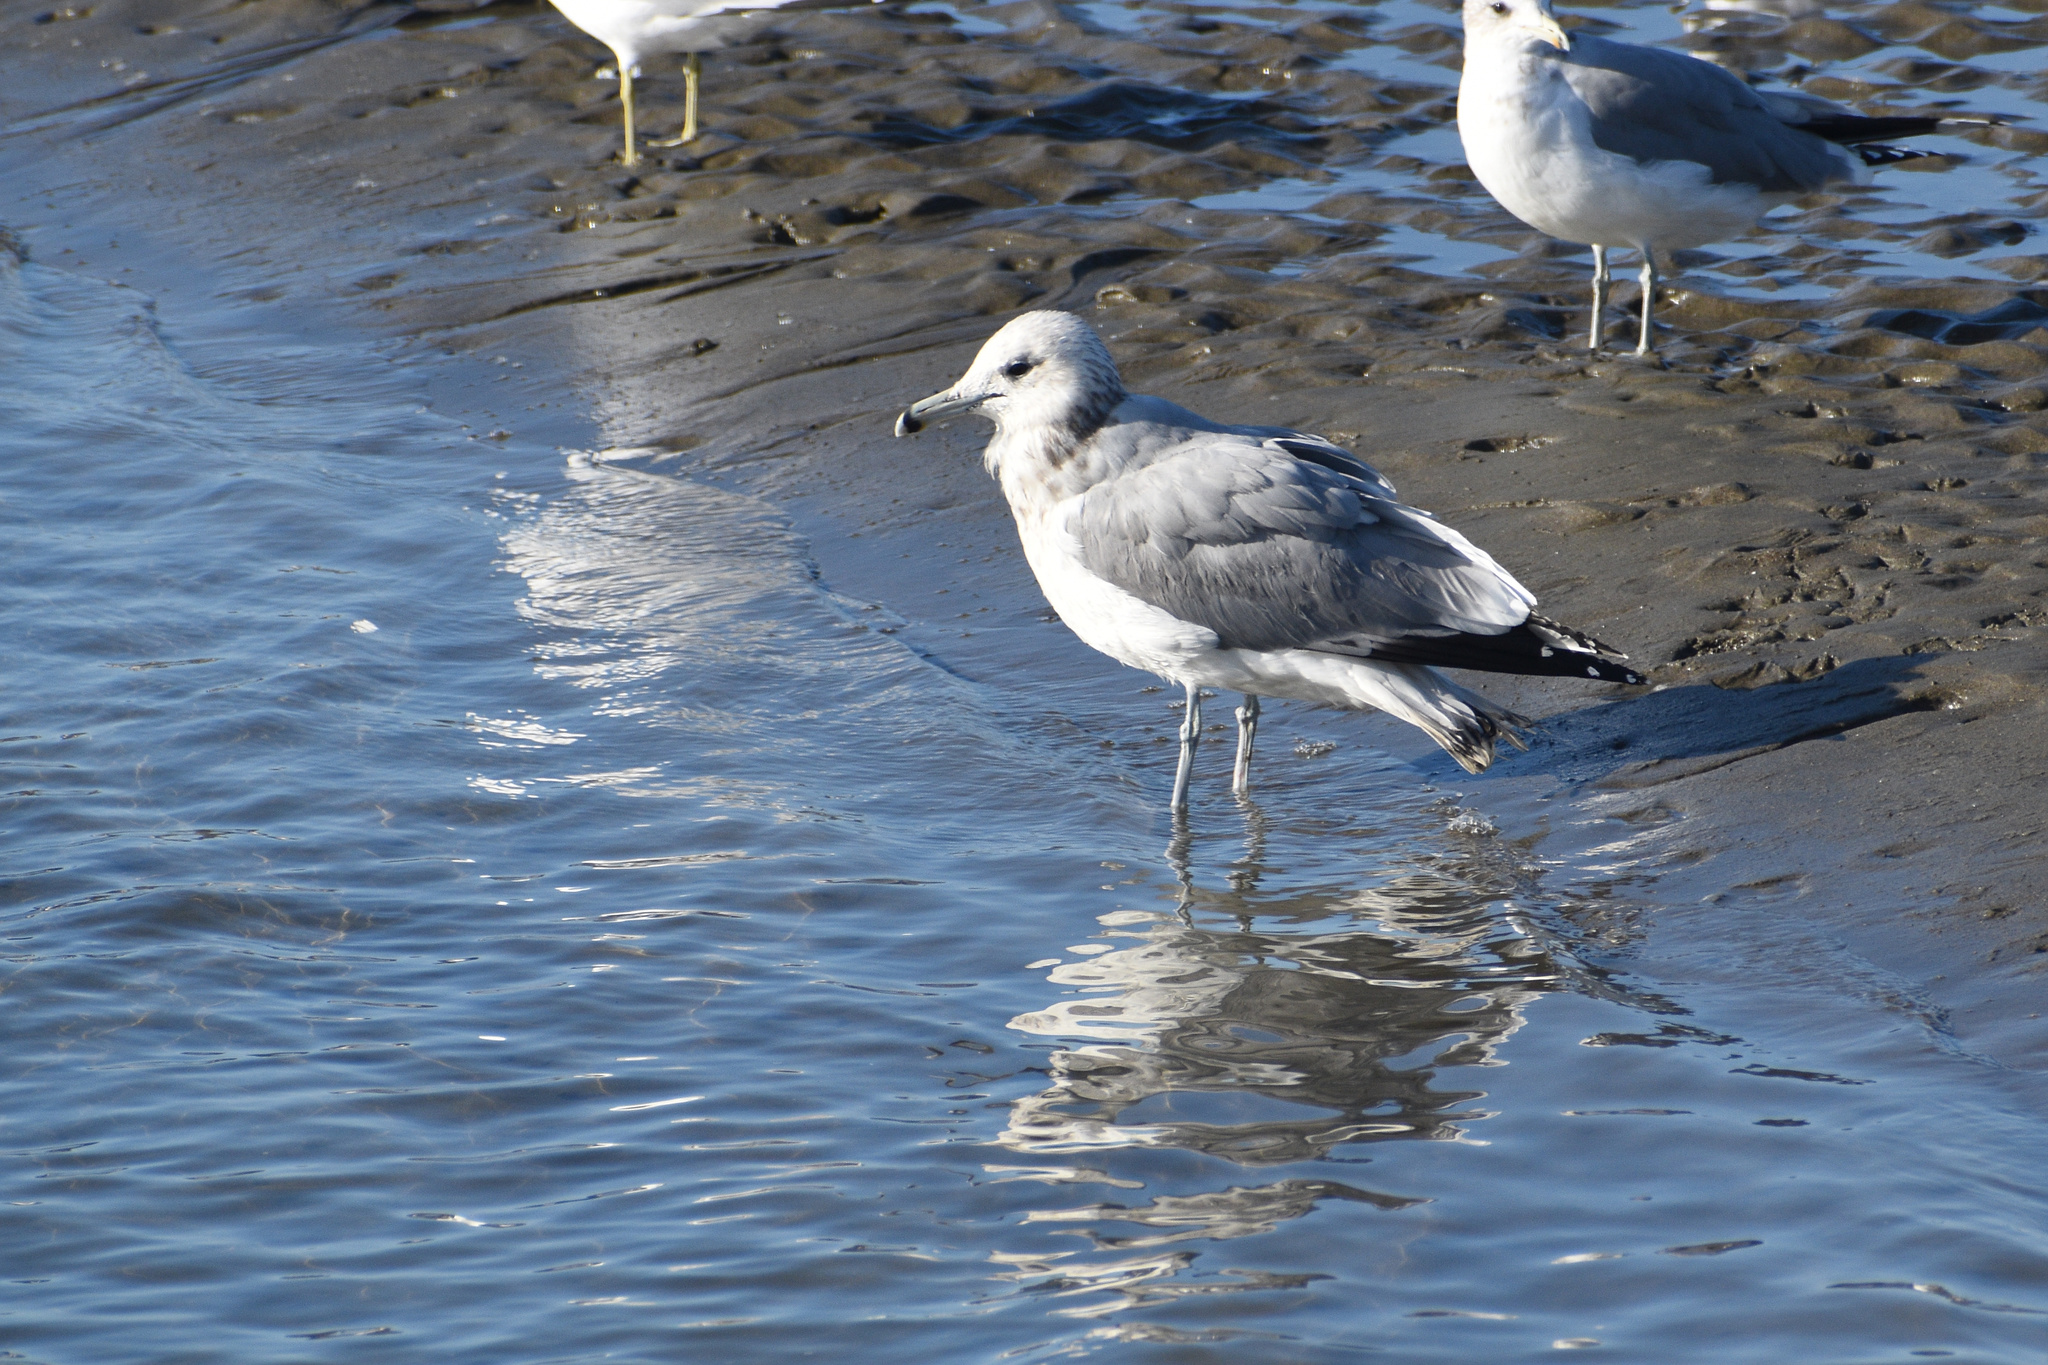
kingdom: Animalia
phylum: Chordata
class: Aves
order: Charadriiformes
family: Laridae
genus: Larus
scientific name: Larus californicus
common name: California gull
